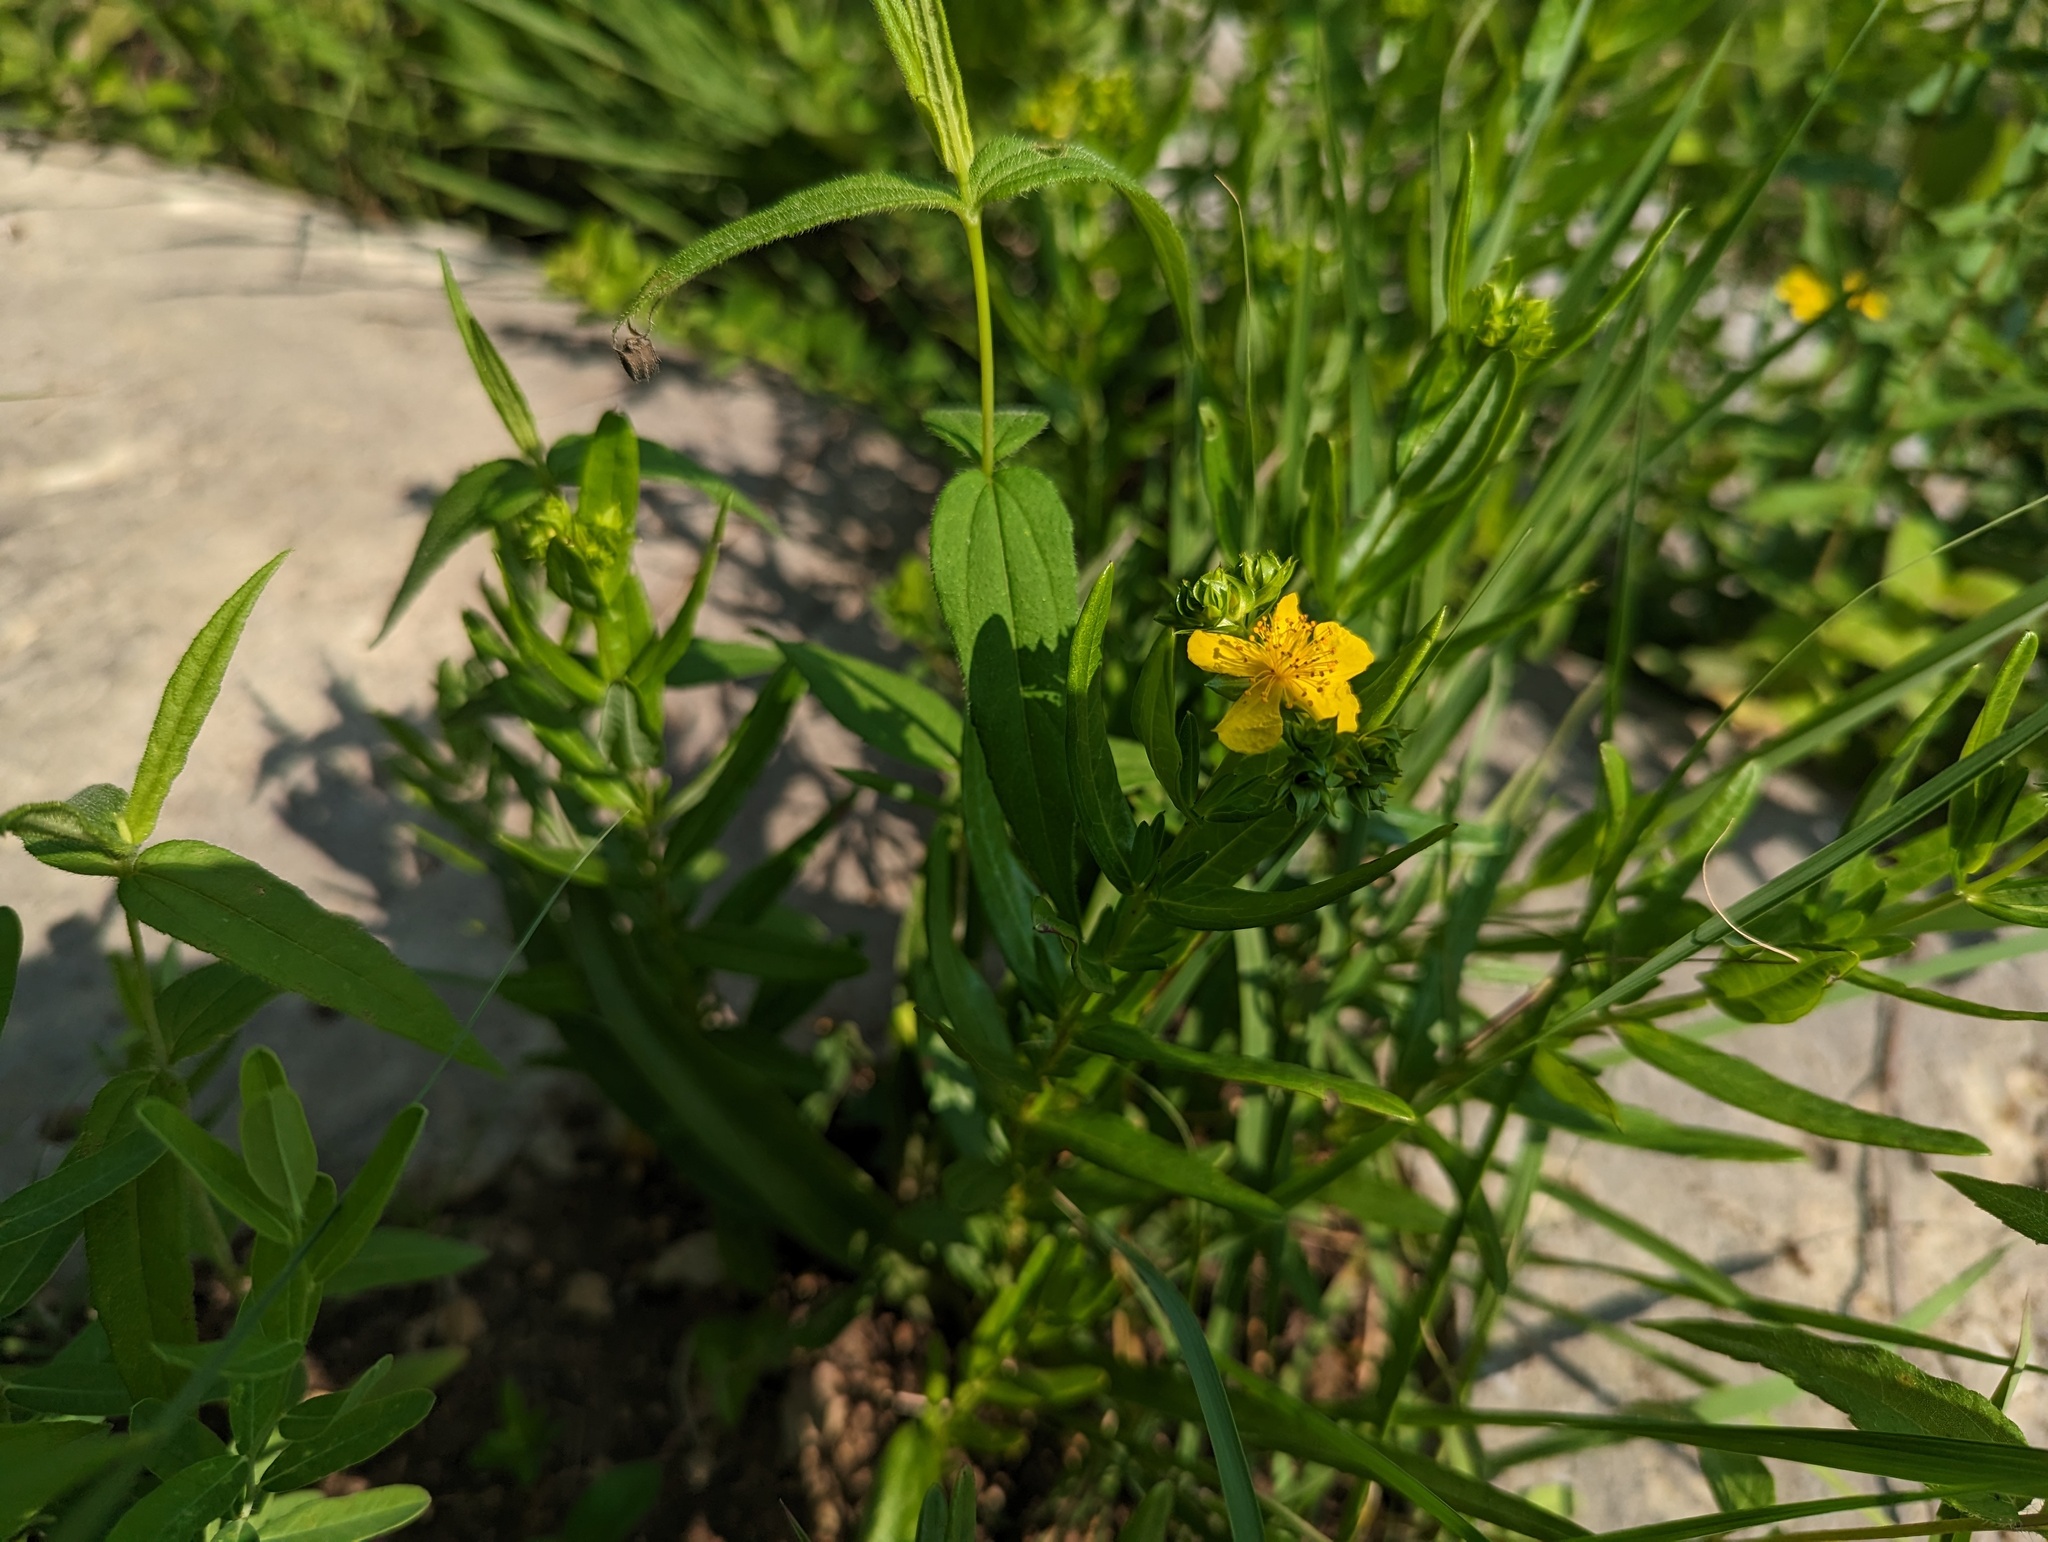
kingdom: Plantae
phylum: Tracheophyta
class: Magnoliopsida
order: Malpighiales
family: Hypericaceae
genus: Hypericum
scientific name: Hypericum sphaerocarpum
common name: Round-fruited st. john's-wort
